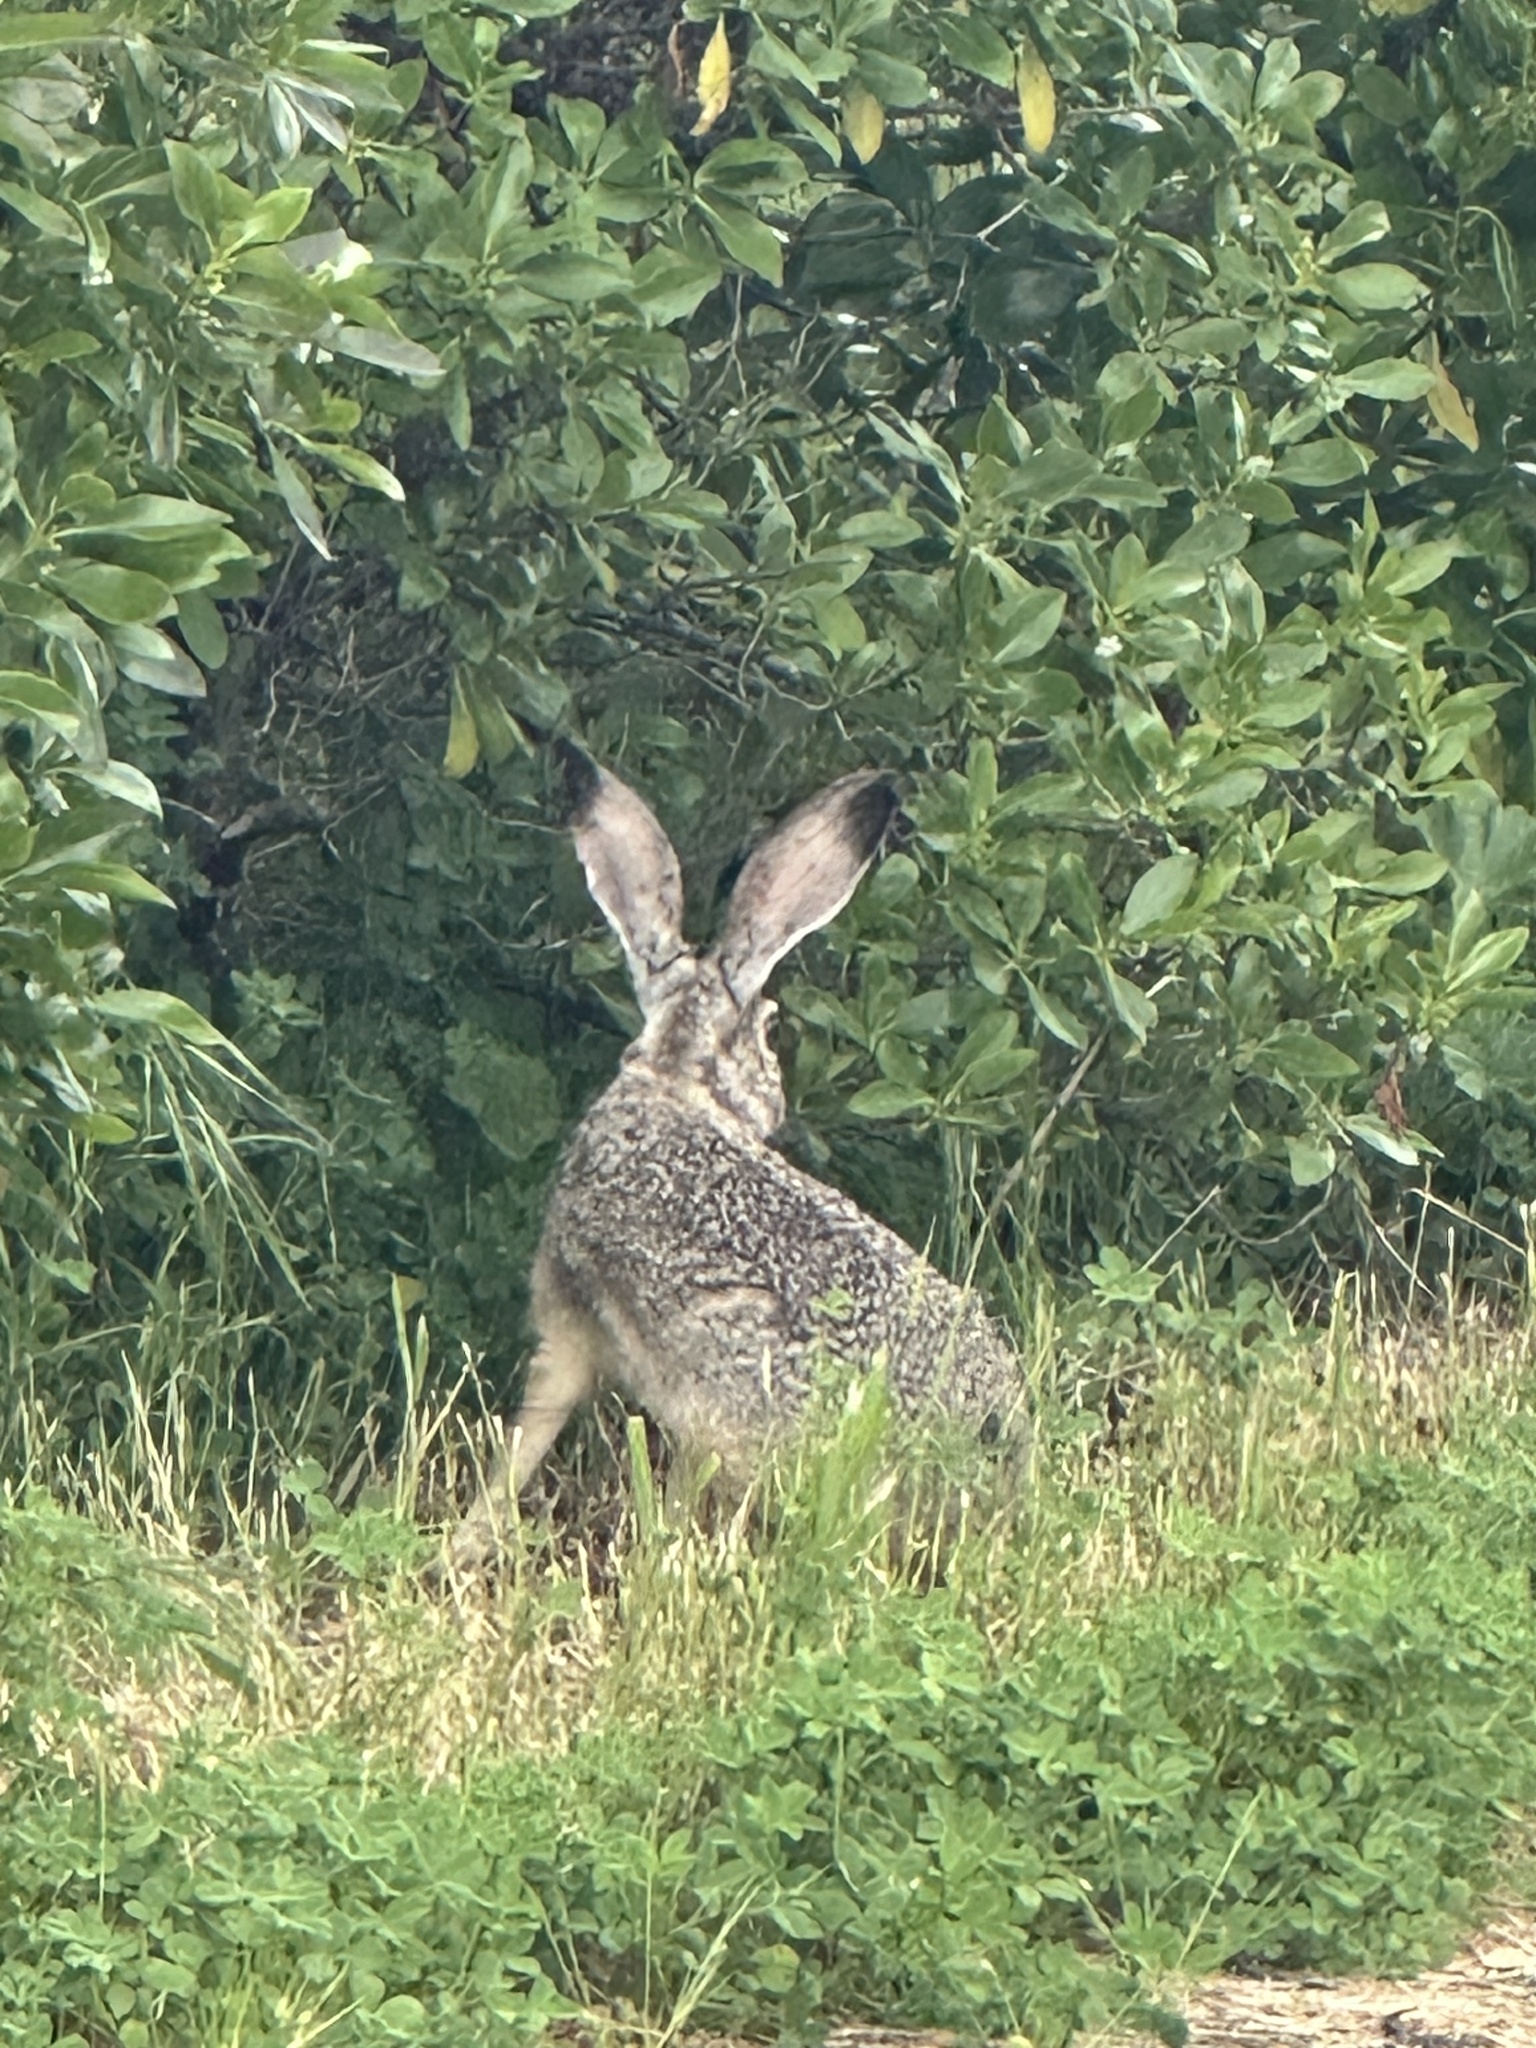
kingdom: Animalia
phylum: Chordata
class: Mammalia
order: Lagomorpha
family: Leporidae
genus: Lepus
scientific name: Lepus californicus
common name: Black-tailed jackrabbit
